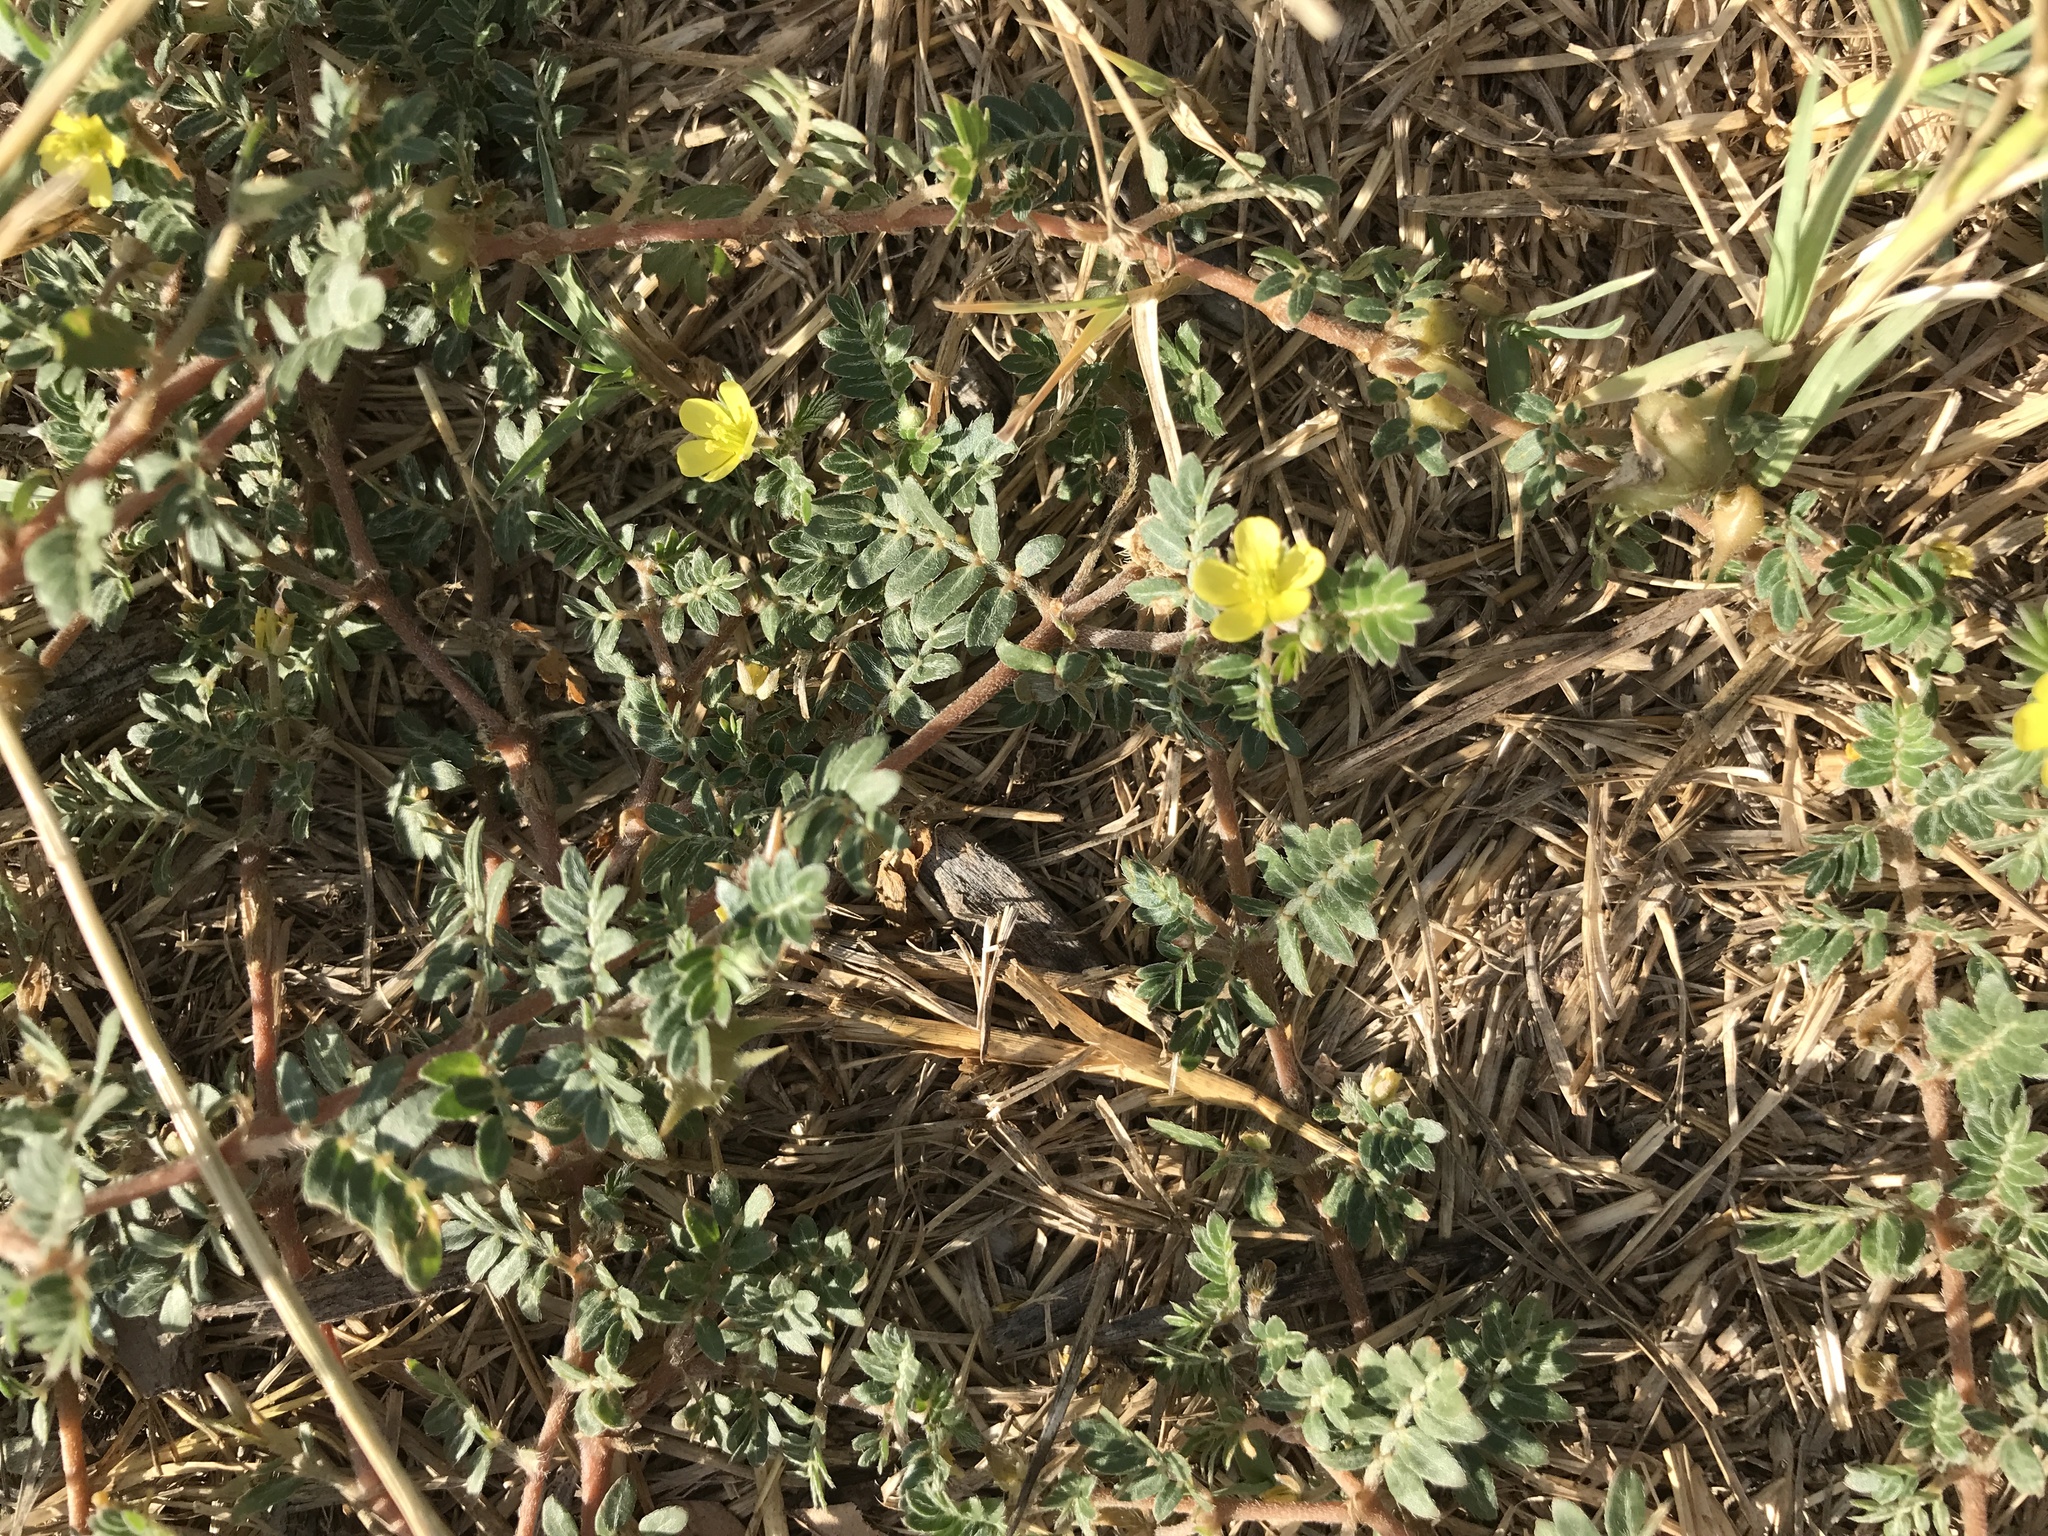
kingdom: Plantae
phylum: Tracheophyta
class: Magnoliopsida
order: Zygophyllales
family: Zygophyllaceae
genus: Tribulus
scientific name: Tribulus terrestris
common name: Puncturevine
